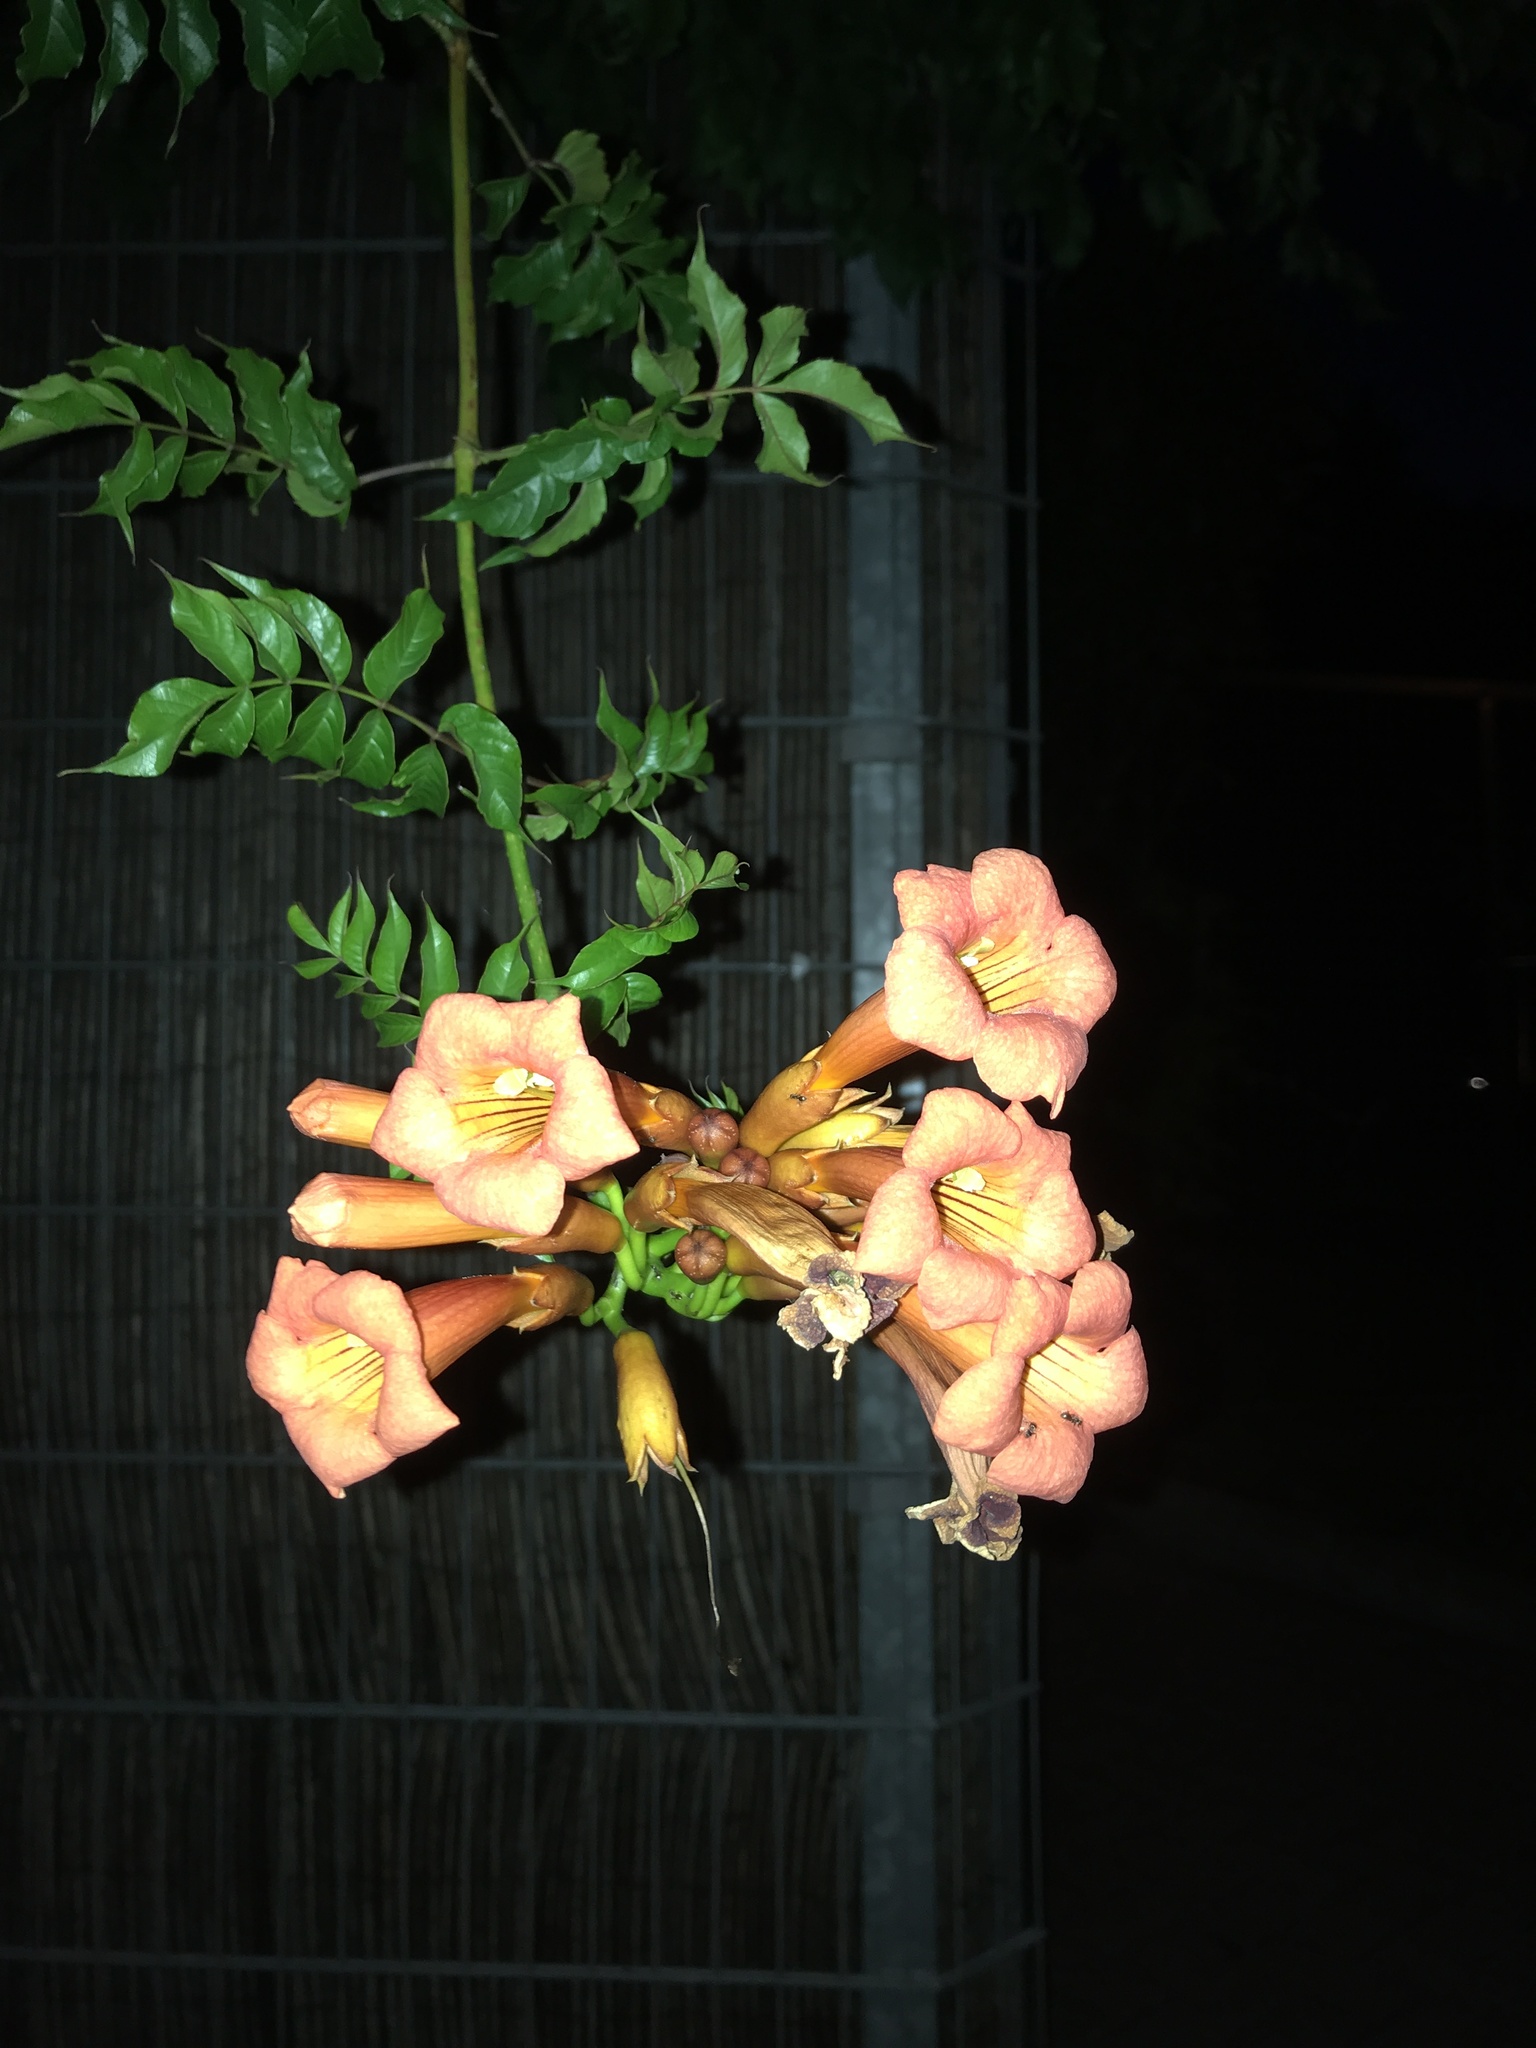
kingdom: Plantae
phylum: Tracheophyta
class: Magnoliopsida
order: Lamiales
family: Bignoniaceae
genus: Campsis
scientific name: Campsis radicans
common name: Trumpet-creeper
